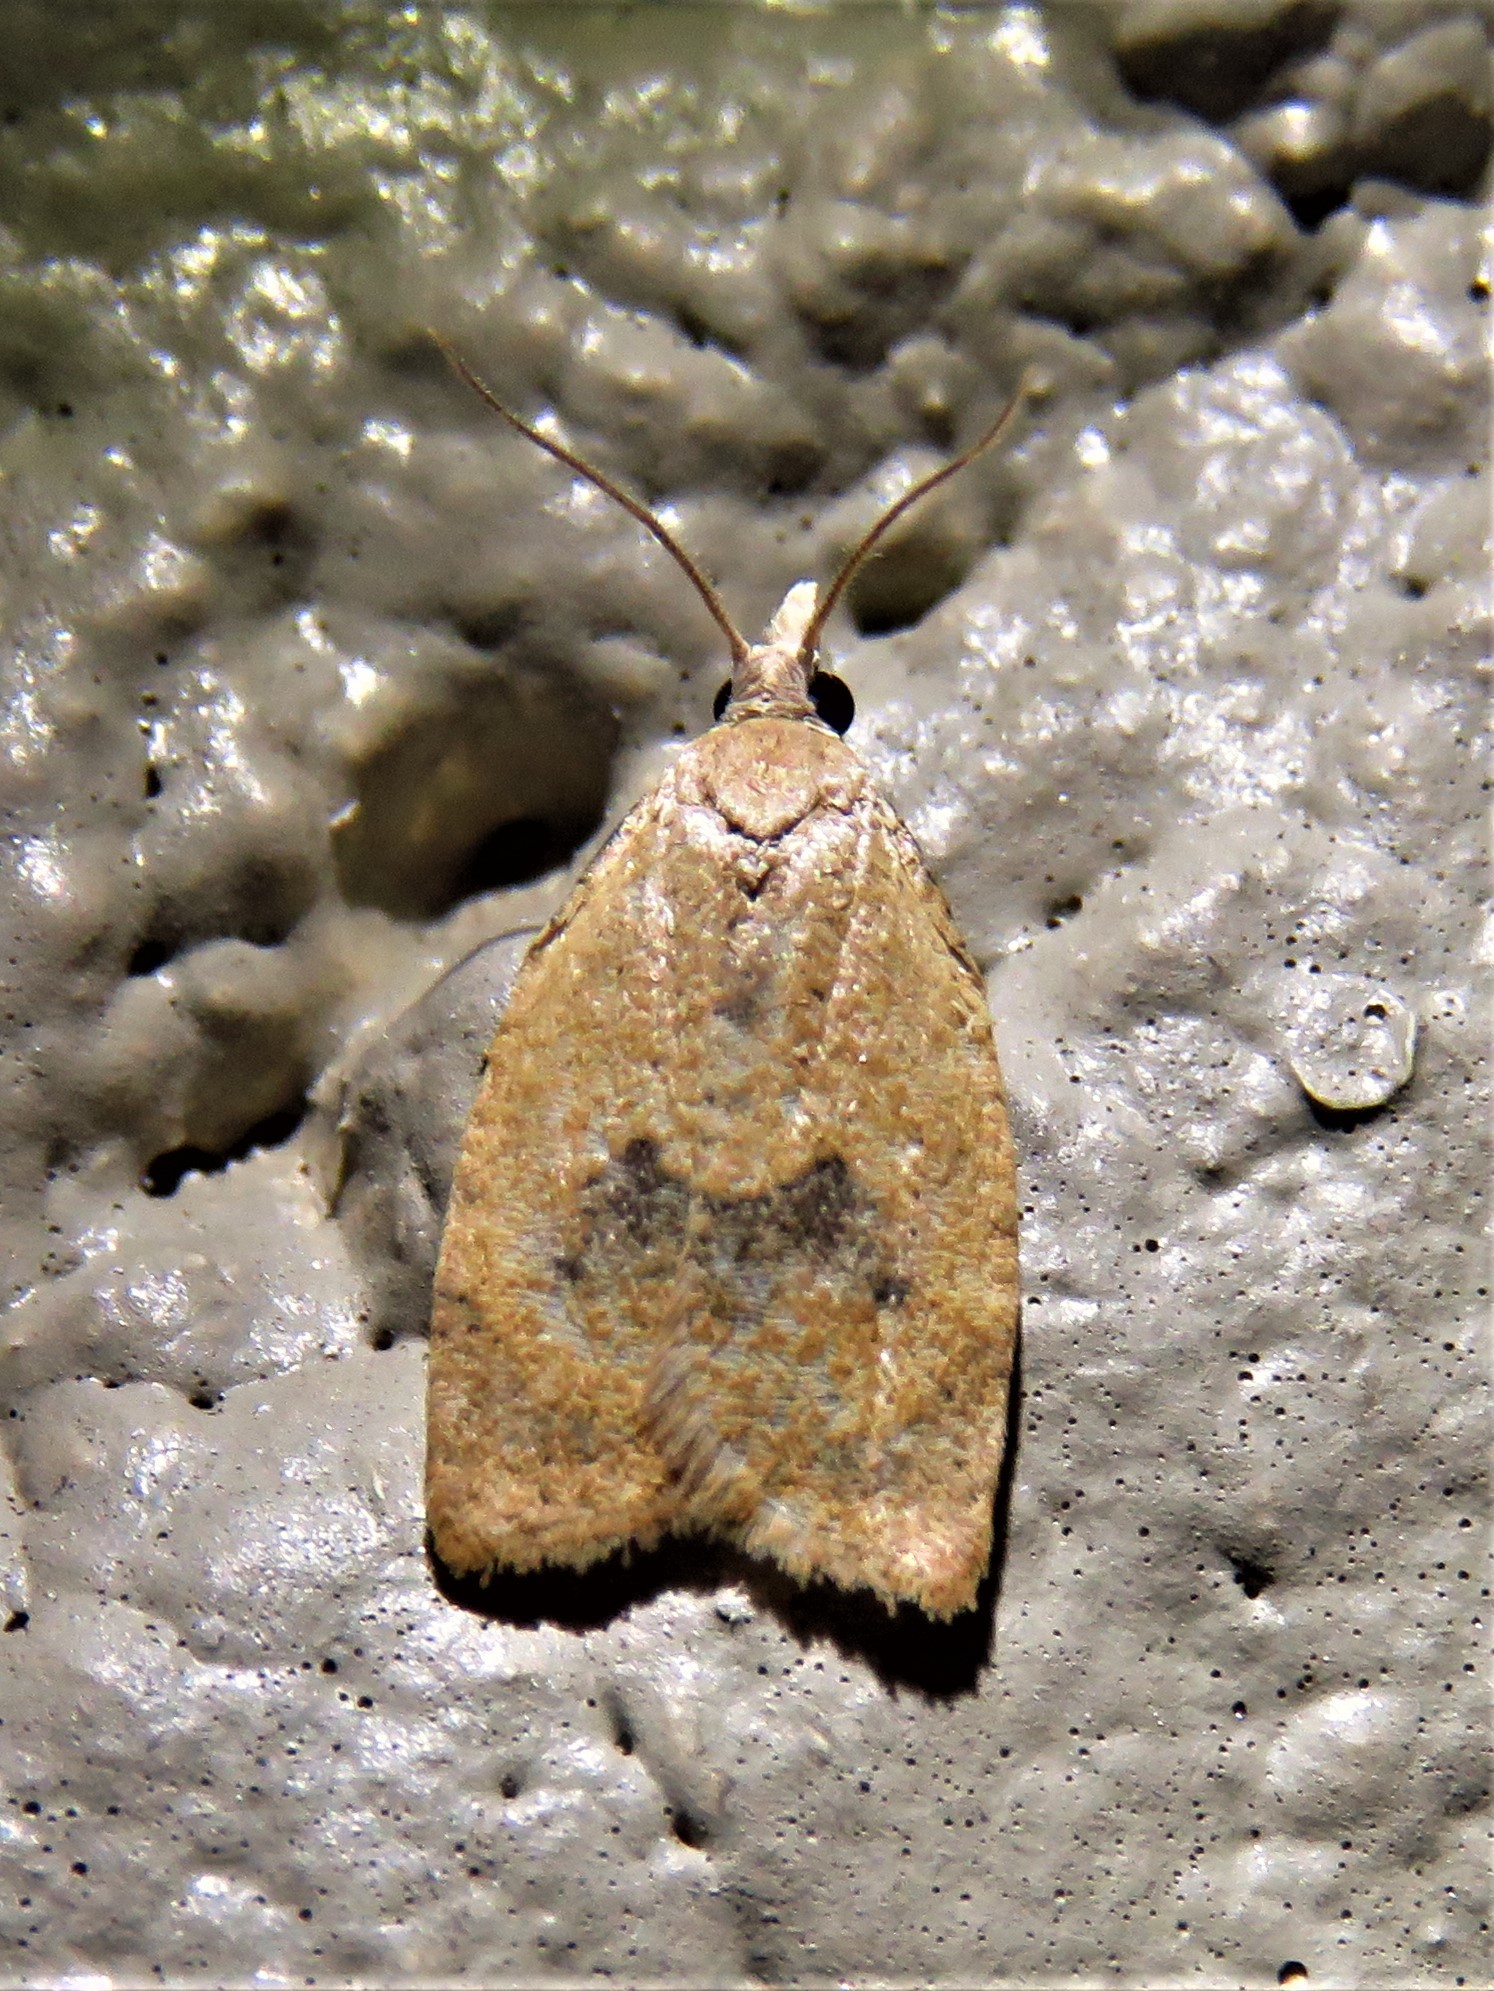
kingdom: Animalia
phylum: Arthropoda
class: Insecta
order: Lepidoptera
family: Tortricidae
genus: Sparganothoides
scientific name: Sparganothoides lentiginosana
